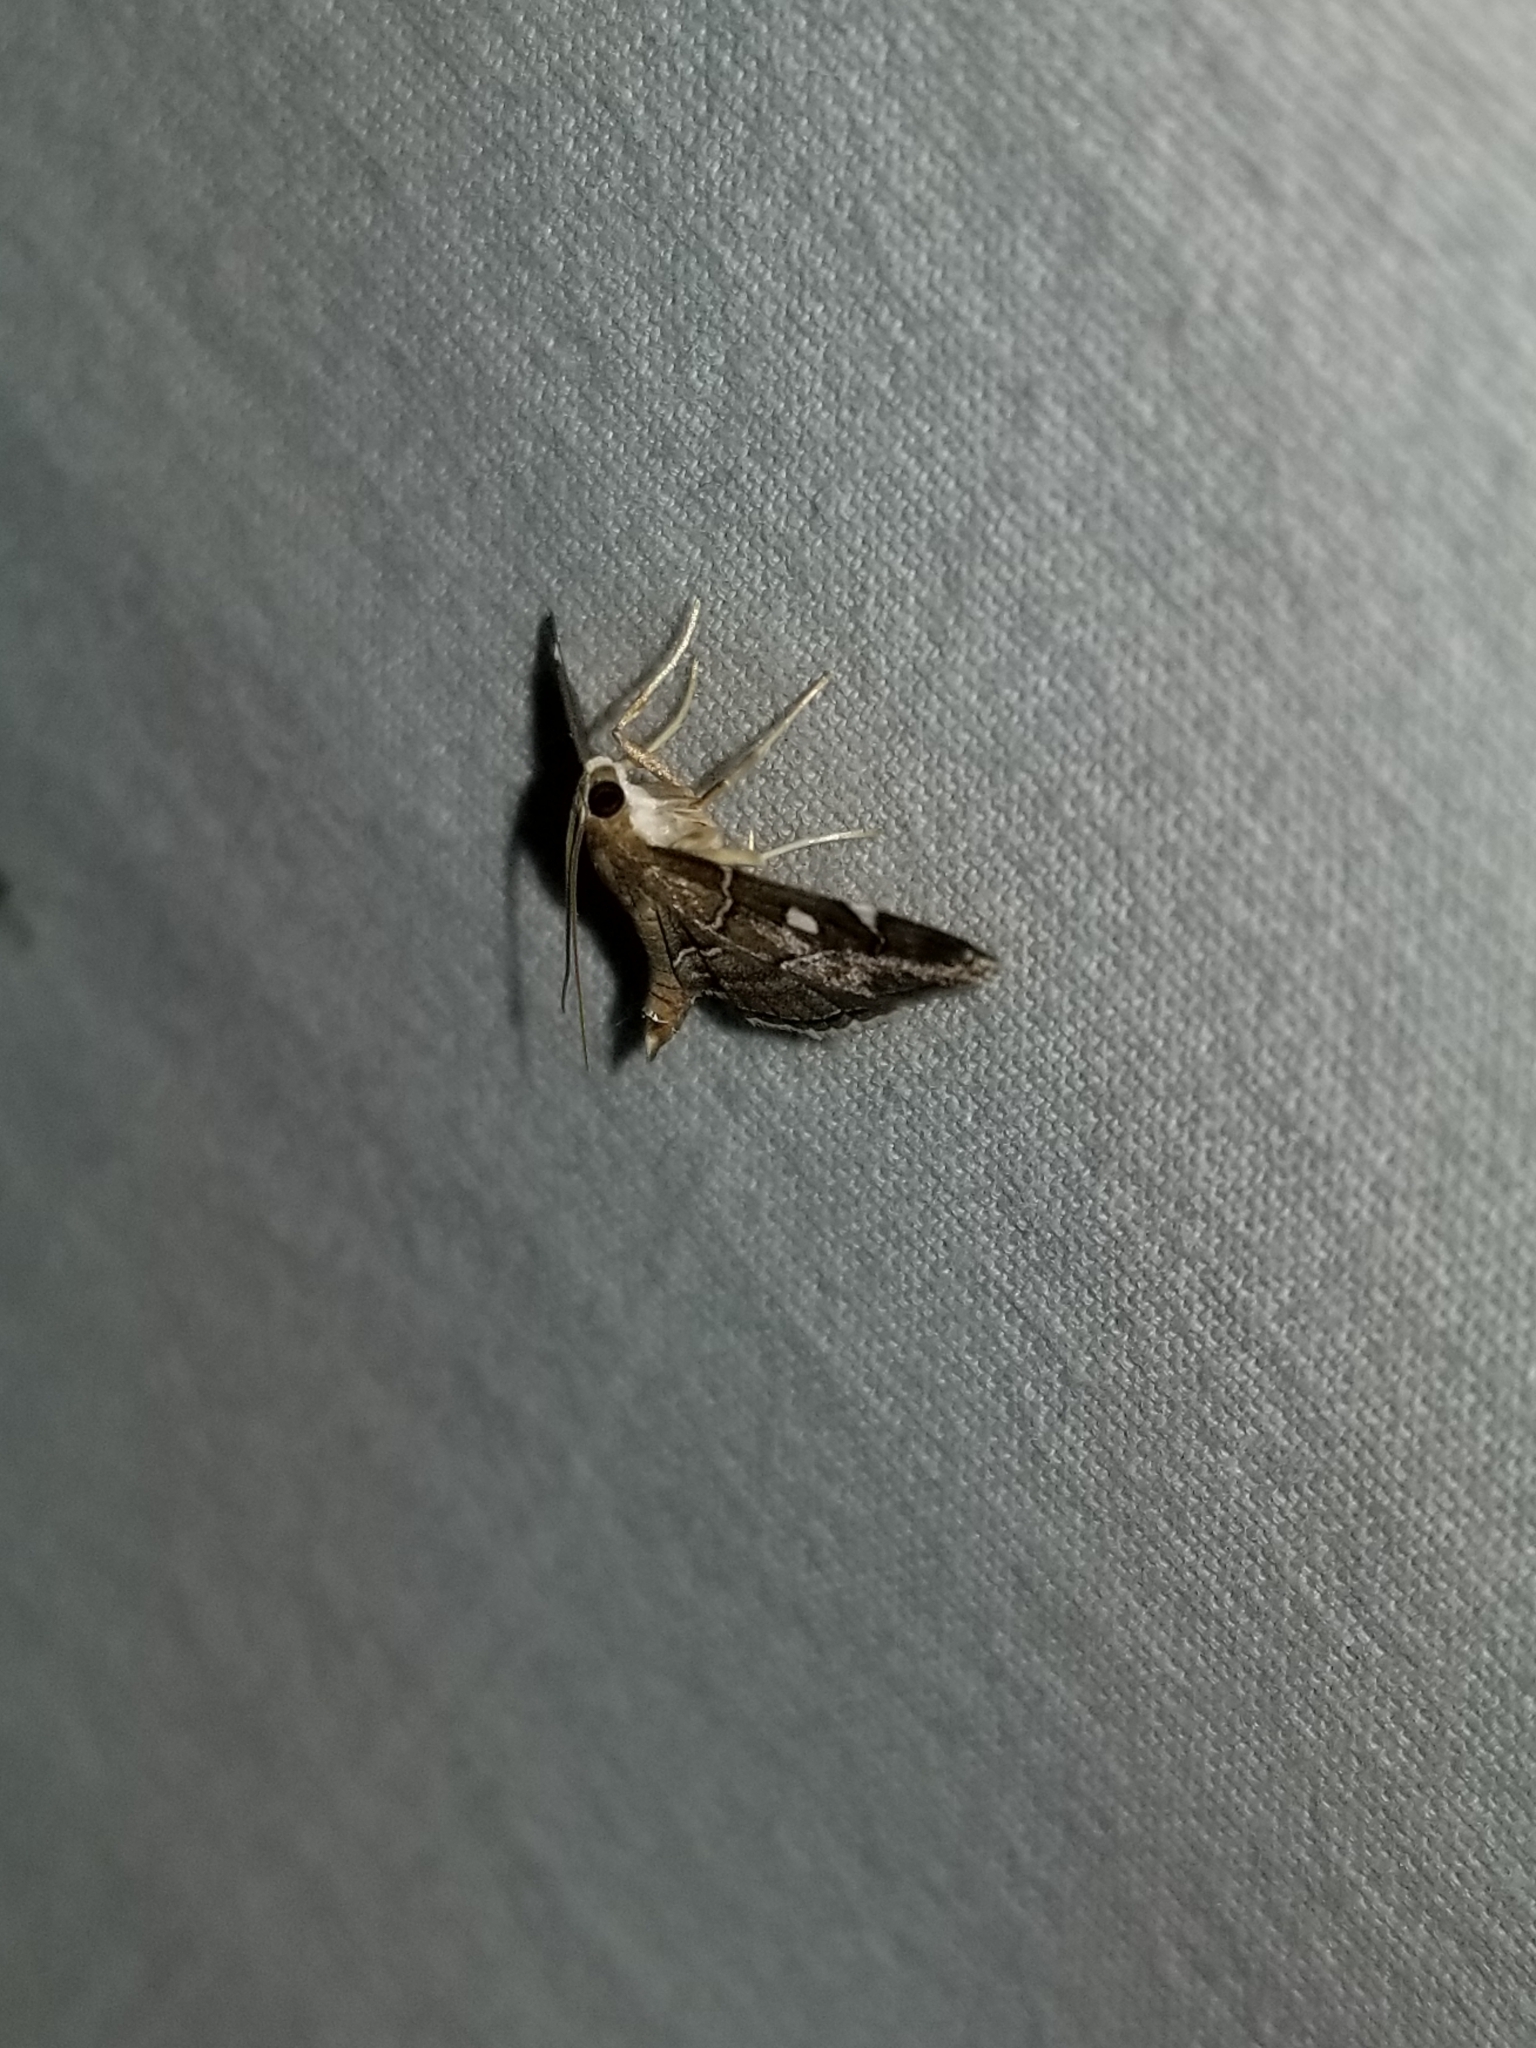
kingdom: Animalia
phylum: Arthropoda
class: Insecta
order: Lepidoptera
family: Crambidae
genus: Lamprosema
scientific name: Lamprosema victoriae
